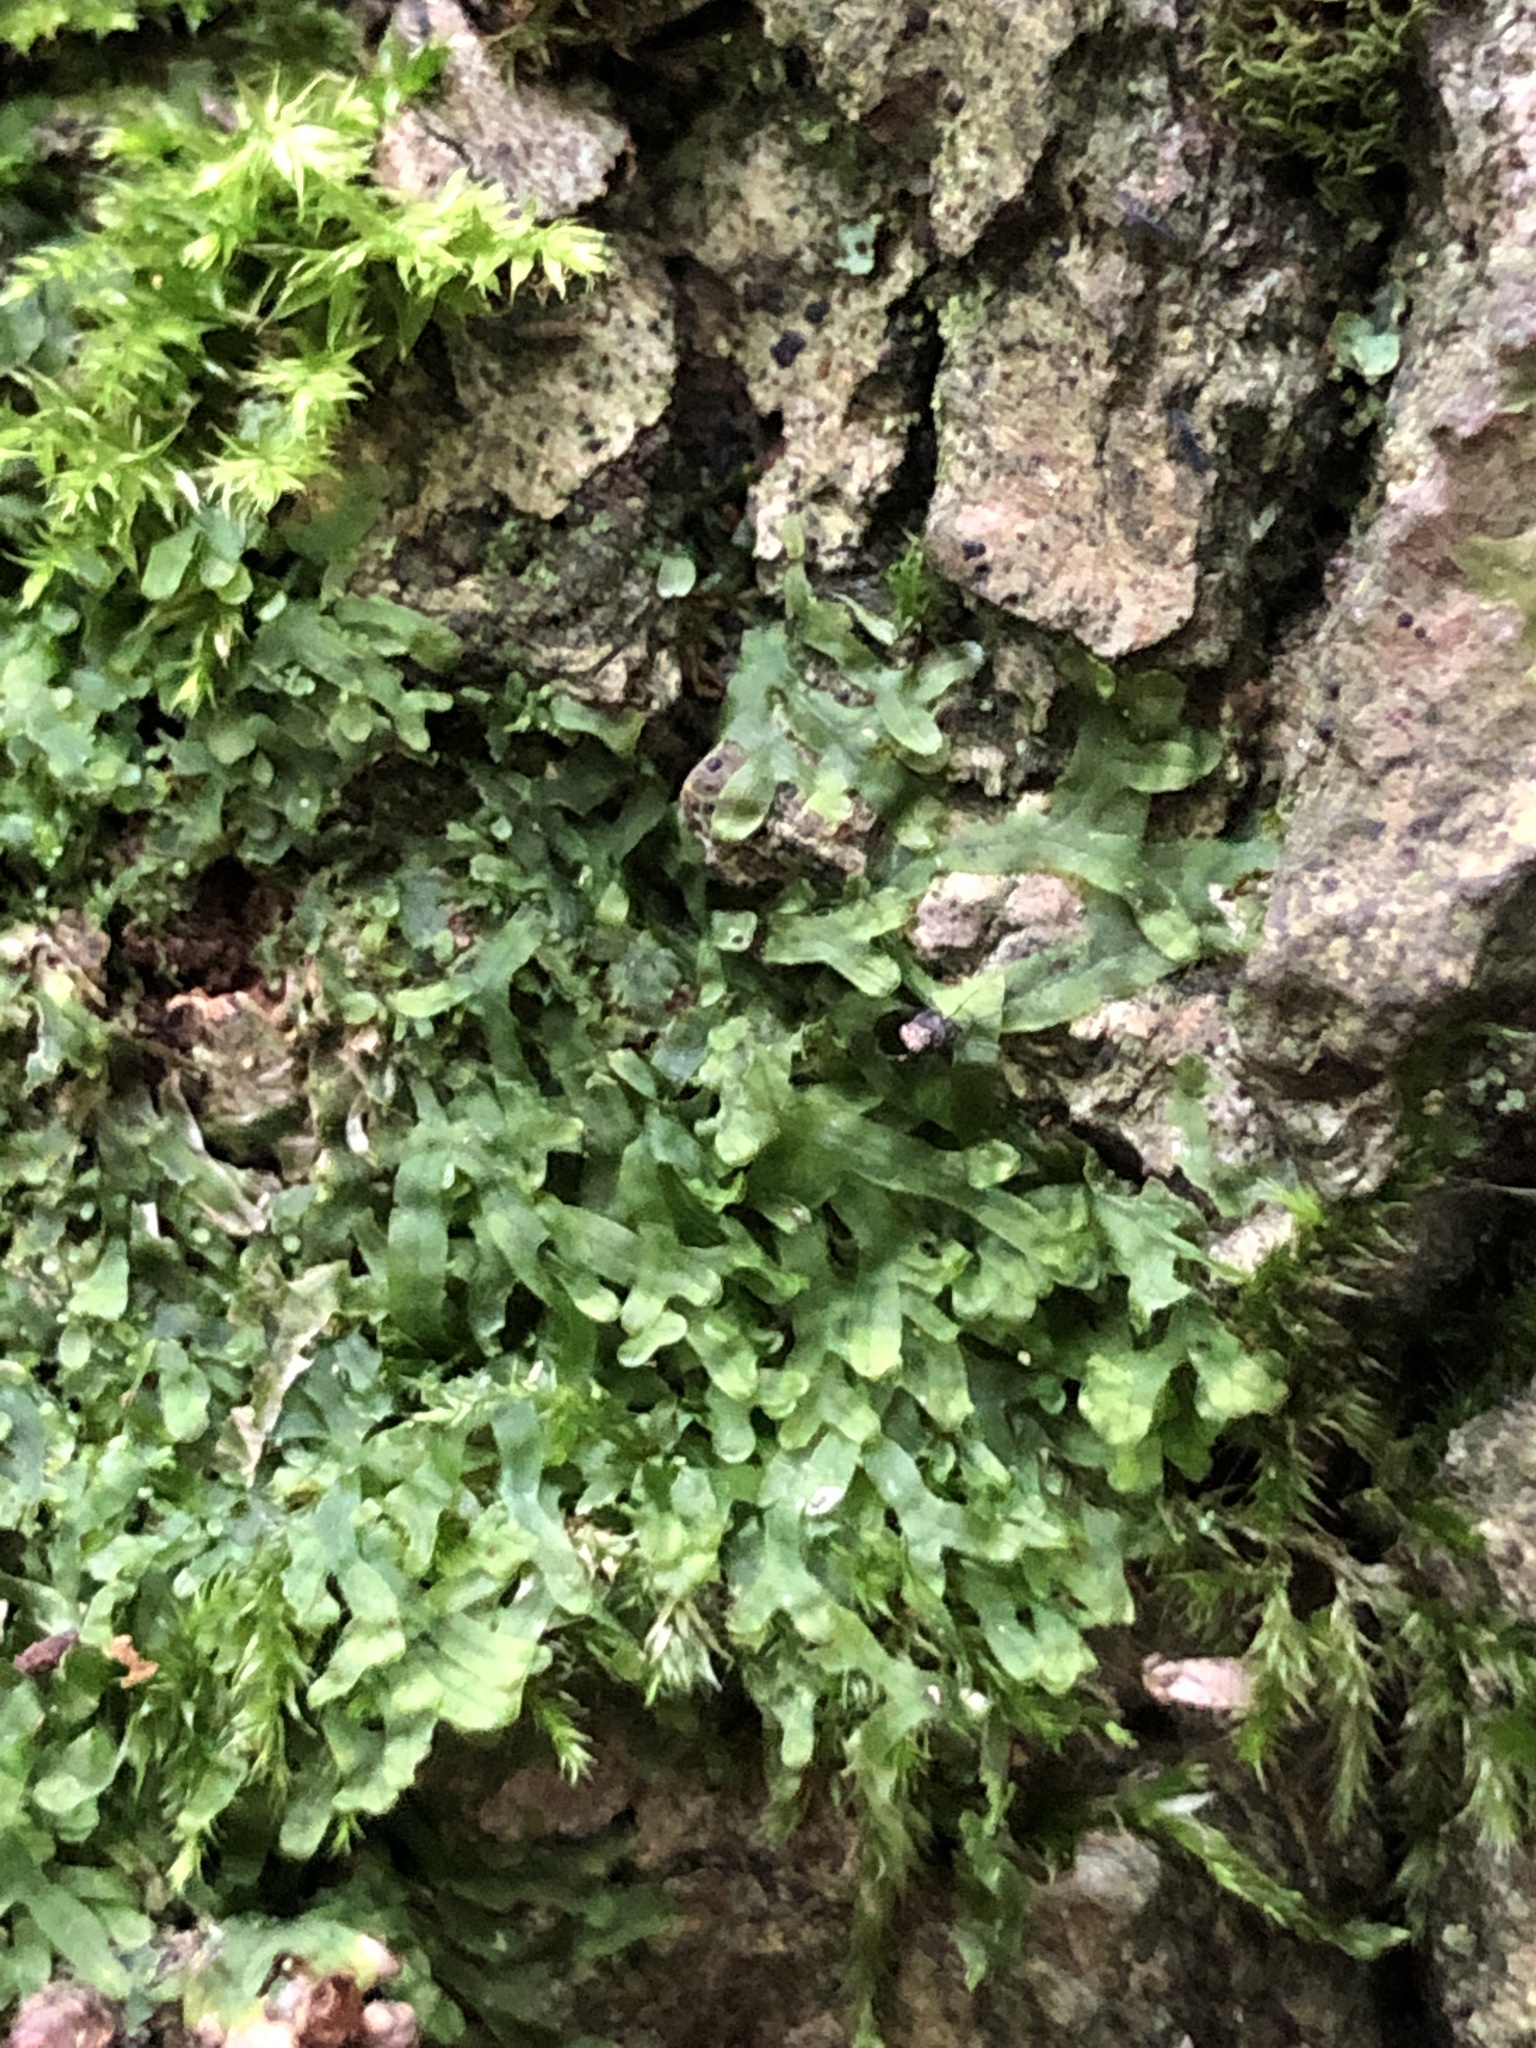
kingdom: Plantae
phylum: Marchantiophyta
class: Jungermanniopsida
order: Metzgeriales
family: Metzgeriaceae
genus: Metzgeria
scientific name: Metzgeria furcata
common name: Forked veilwort
